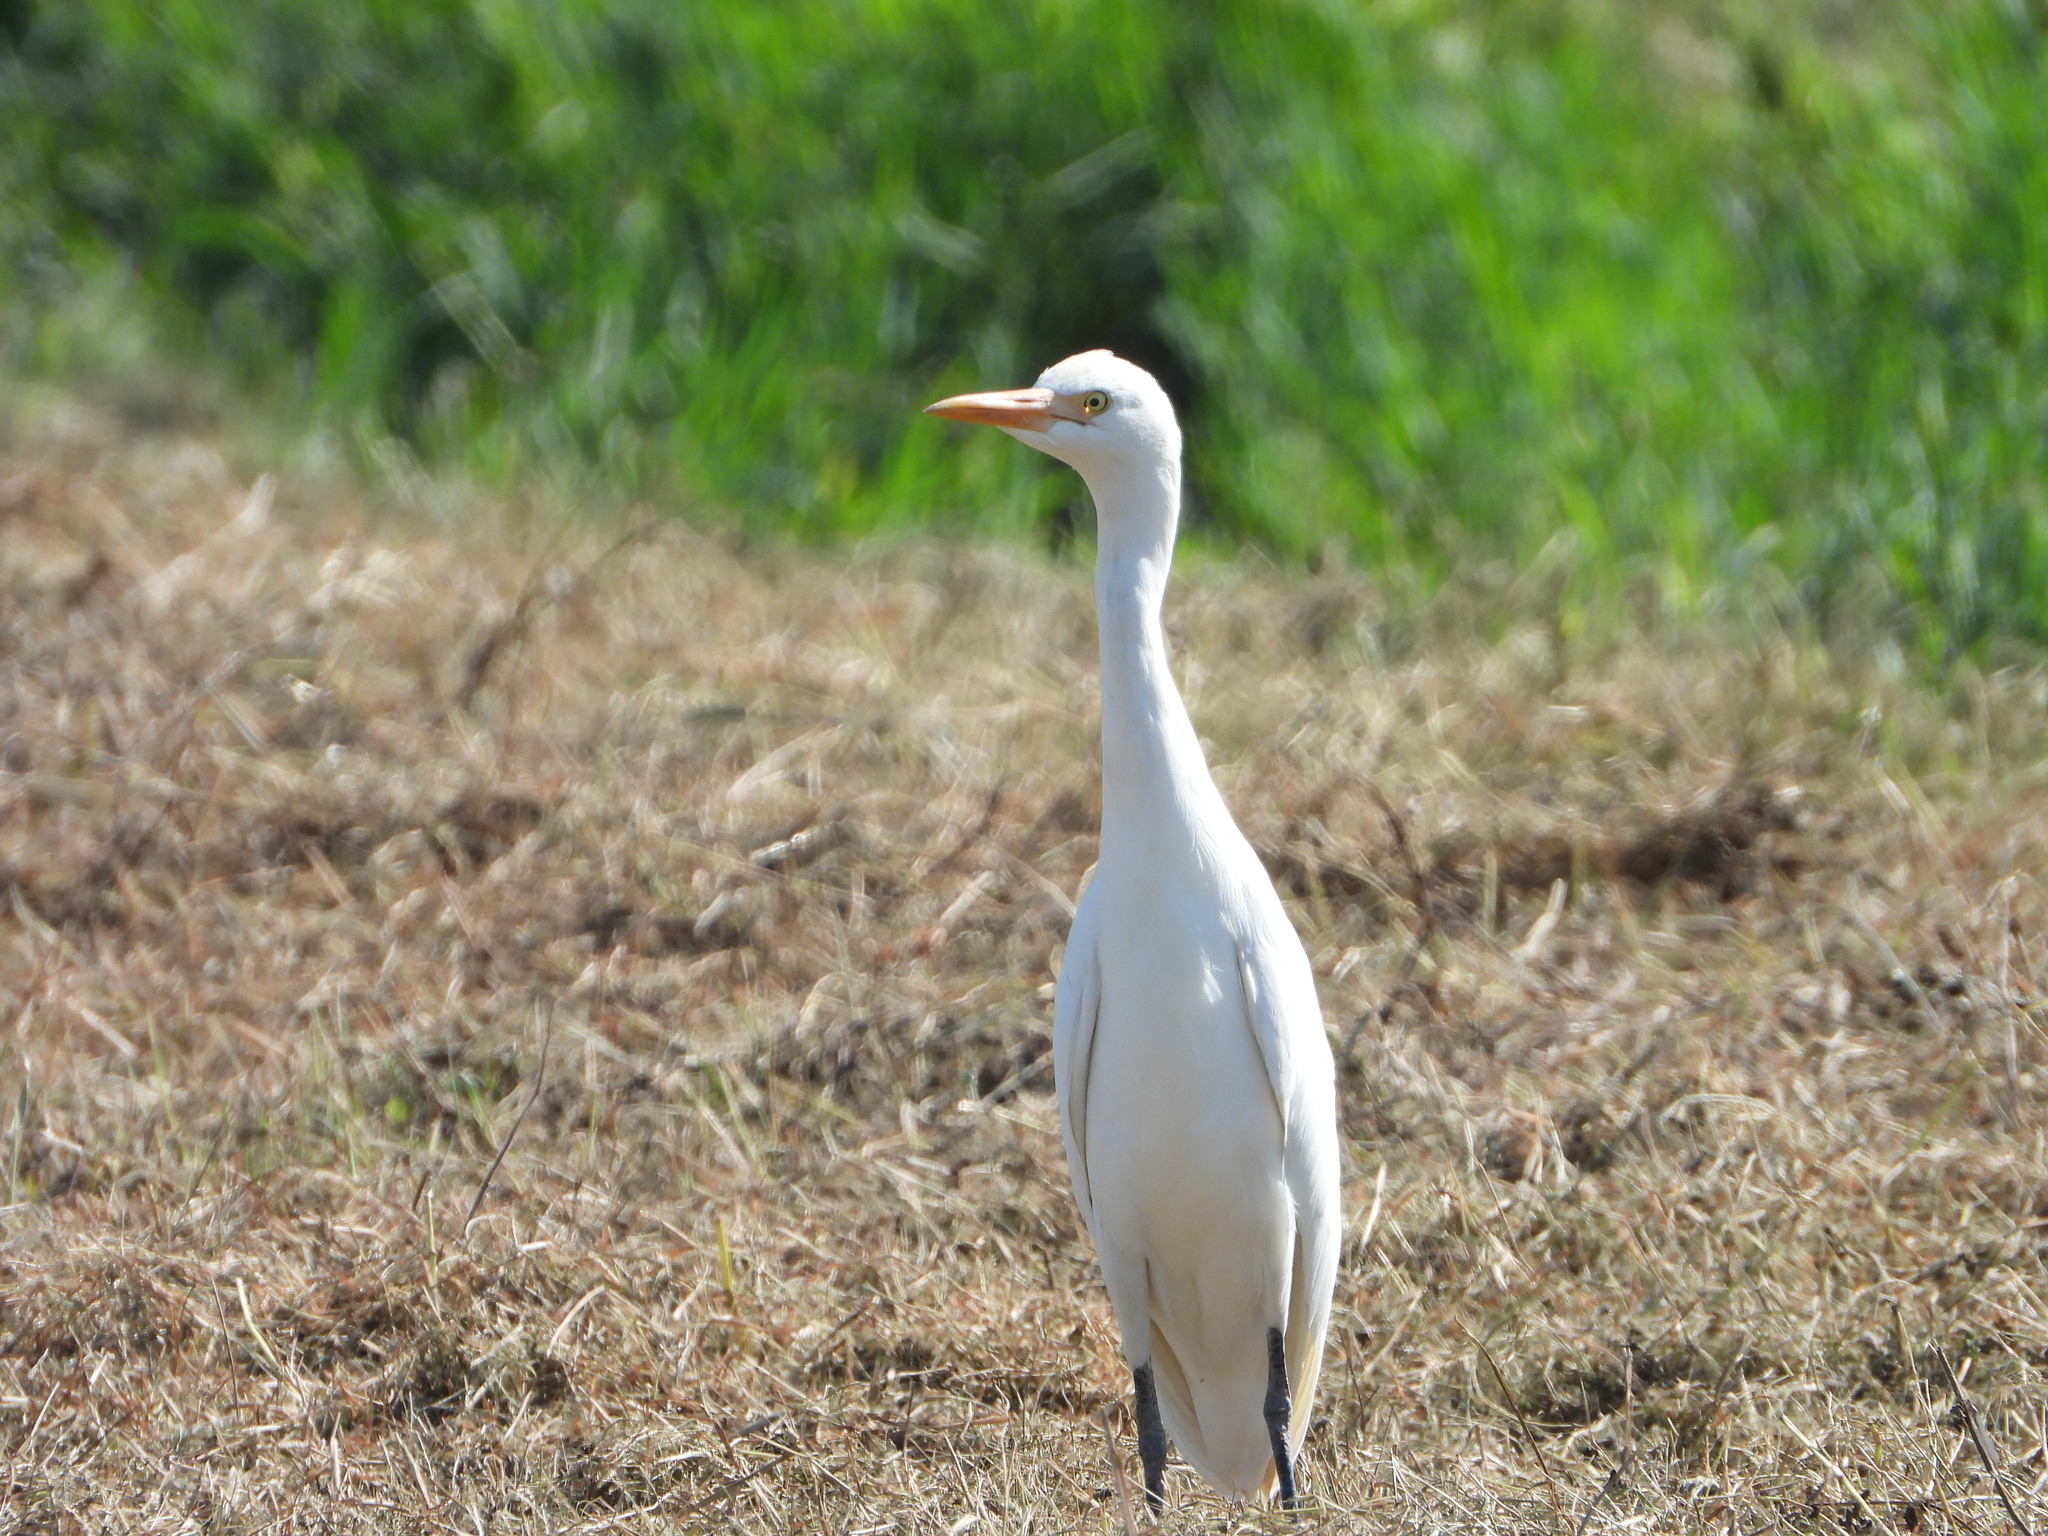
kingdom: Animalia
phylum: Chordata
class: Aves
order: Pelecaniformes
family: Ardeidae
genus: Bubulcus
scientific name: Bubulcus ibis
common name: Cattle egret
